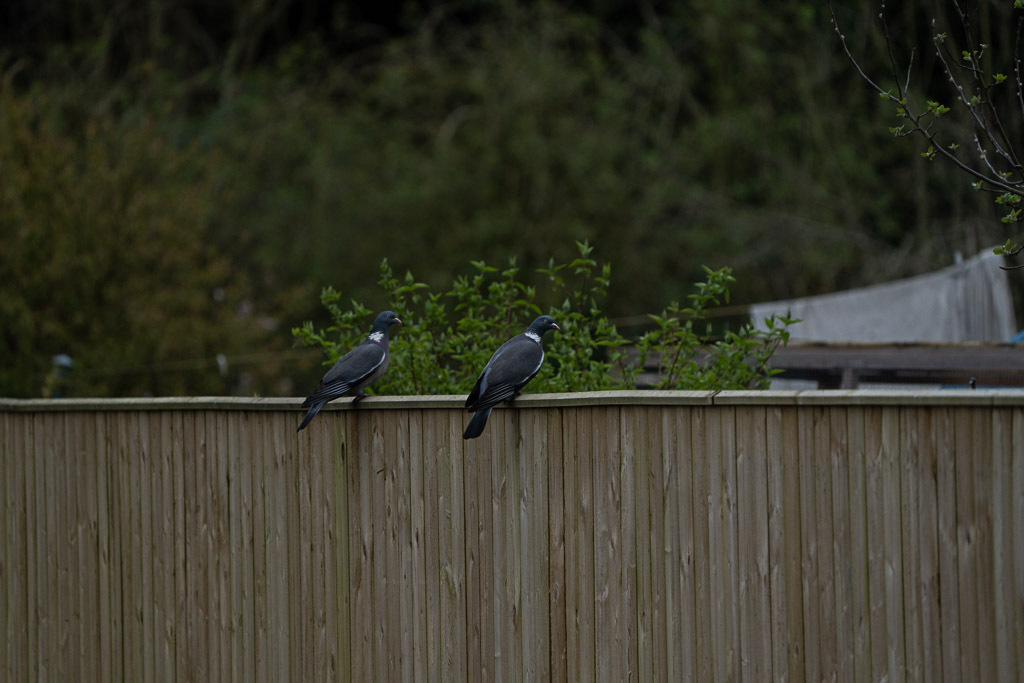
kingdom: Animalia
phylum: Chordata
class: Aves
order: Columbiformes
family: Columbidae
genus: Columba
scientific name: Columba palumbus
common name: Common wood pigeon
